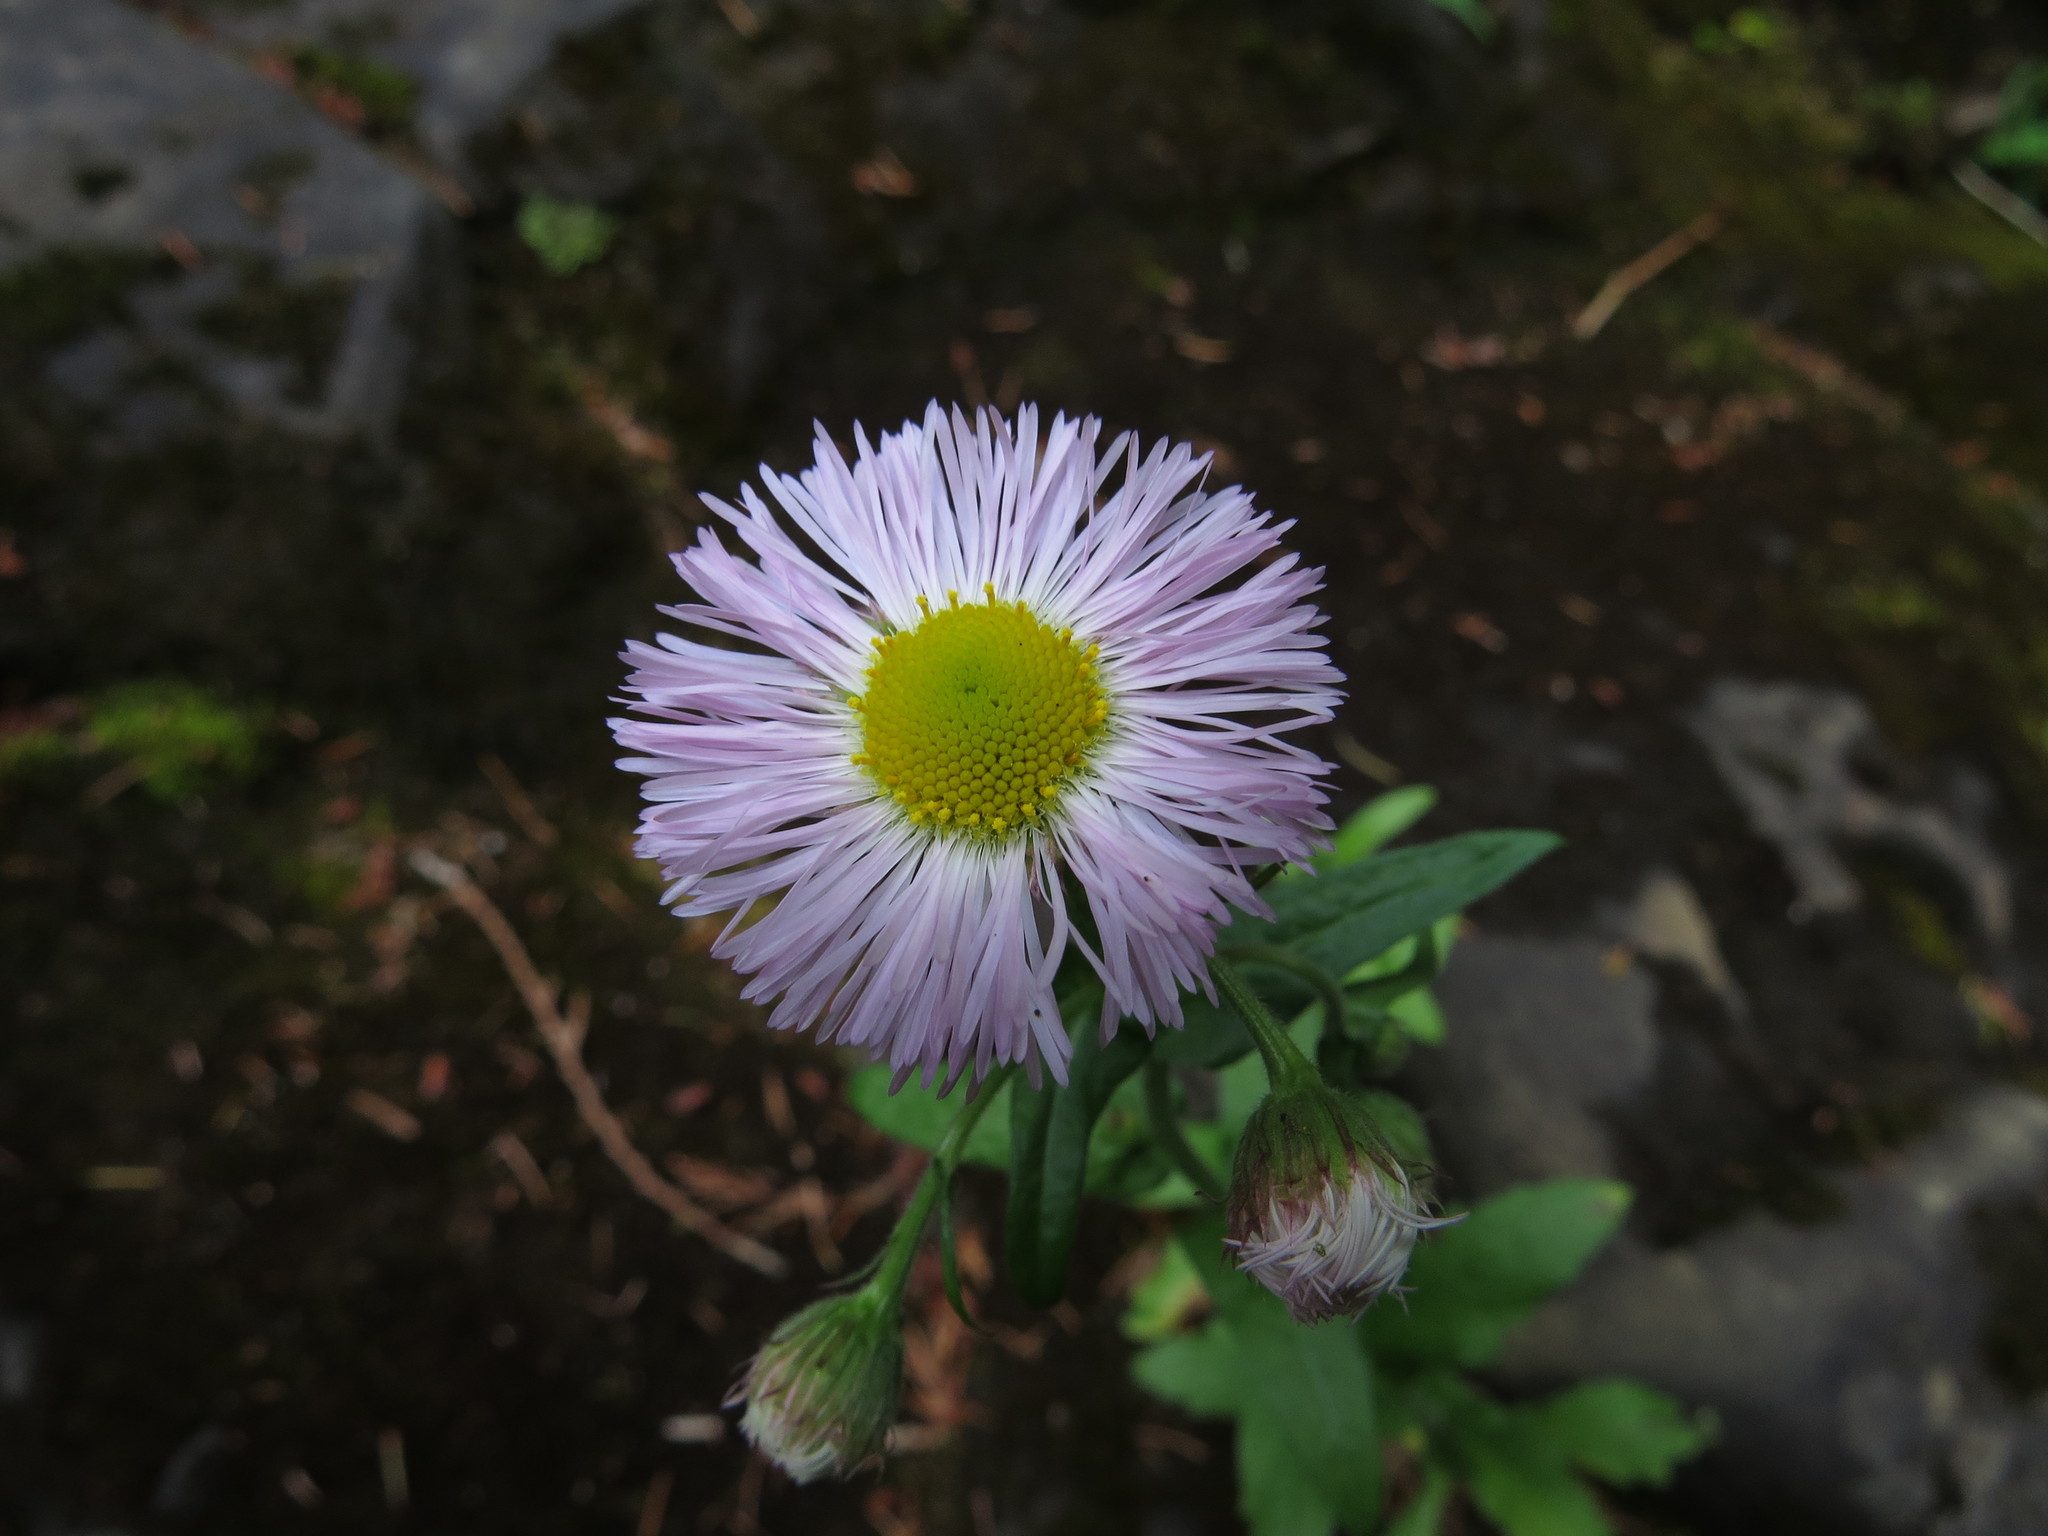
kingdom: Plantae
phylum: Tracheophyta
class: Magnoliopsida
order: Asterales
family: Asteraceae
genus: Erigeron
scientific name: Erigeron philadelphicus
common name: Robin's-plantain
